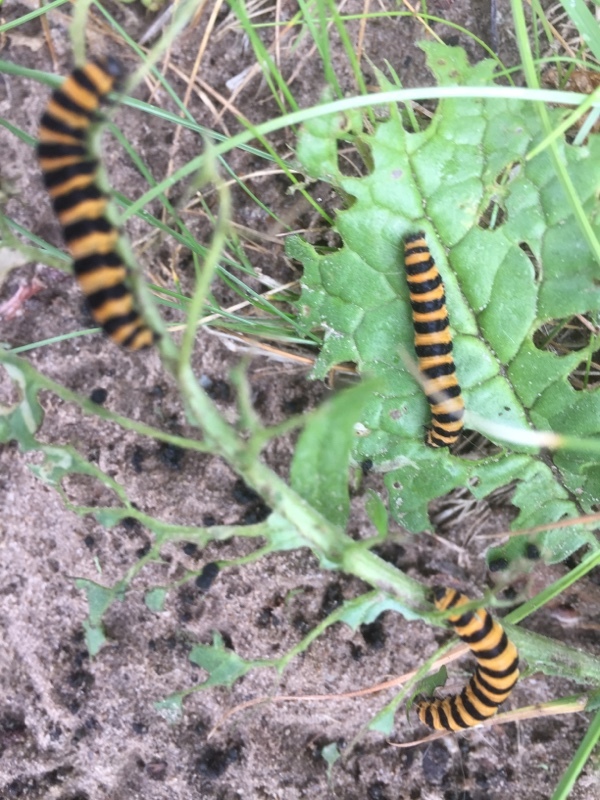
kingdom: Animalia
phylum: Arthropoda
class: Insecta
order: Lepidoptera
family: Erebidae
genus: Tyria
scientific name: Tyria jacobaeae
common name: Cinnabar
